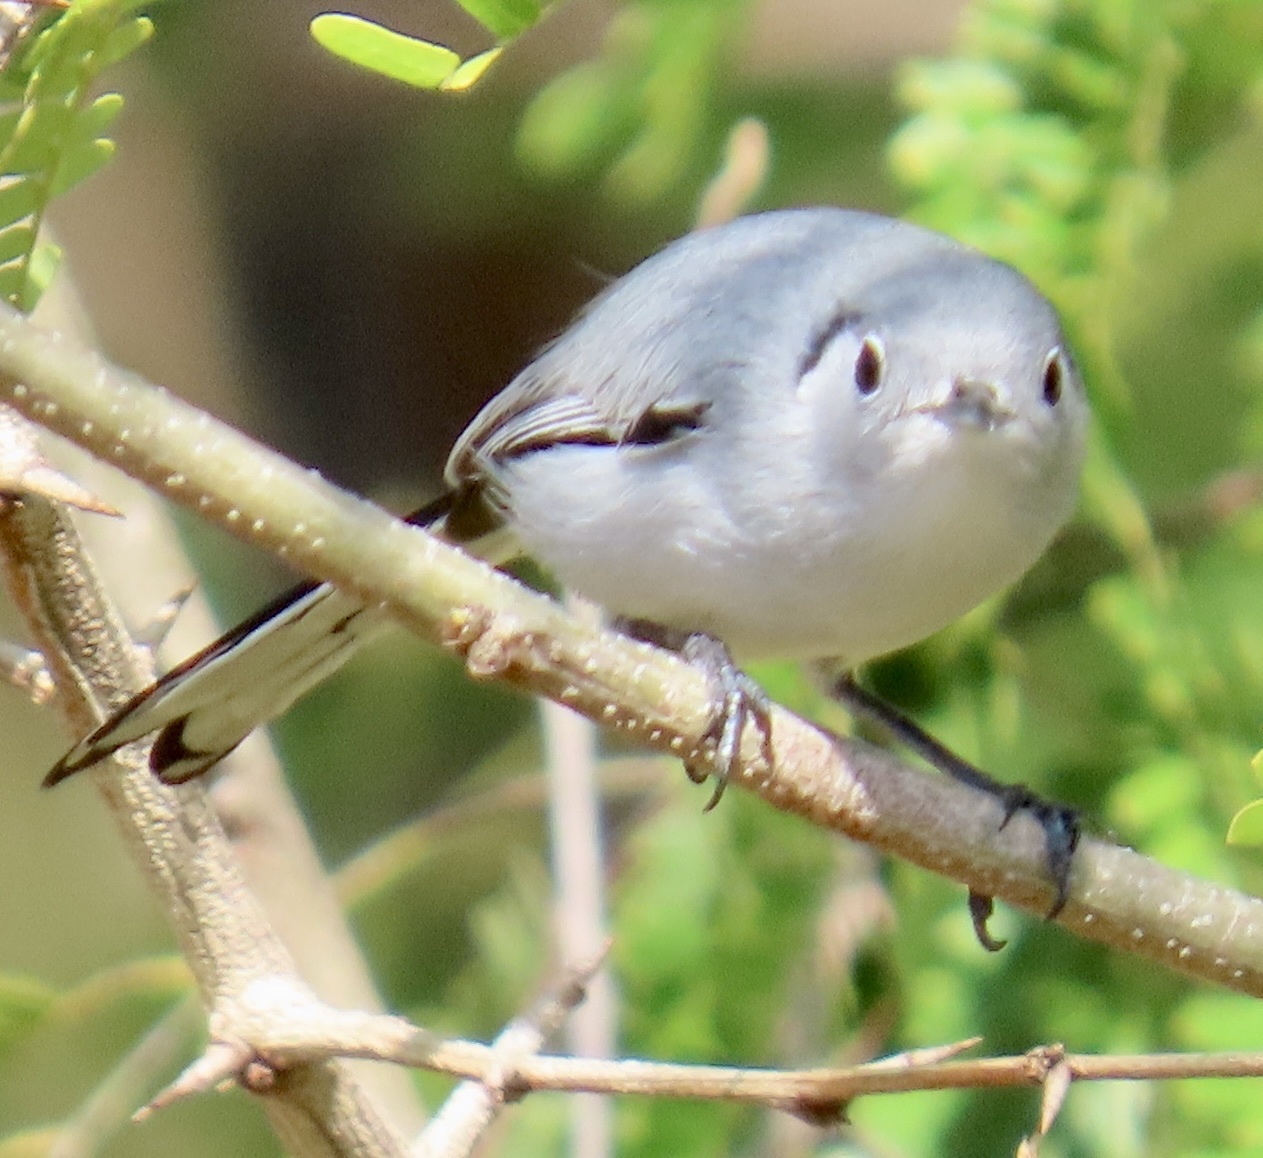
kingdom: Animalia
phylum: Chordata
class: Aves
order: Passeriformes
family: Polioptilidae
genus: Polioptila
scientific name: Polioptila lembeyei
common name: Cuban gnatcatcher
